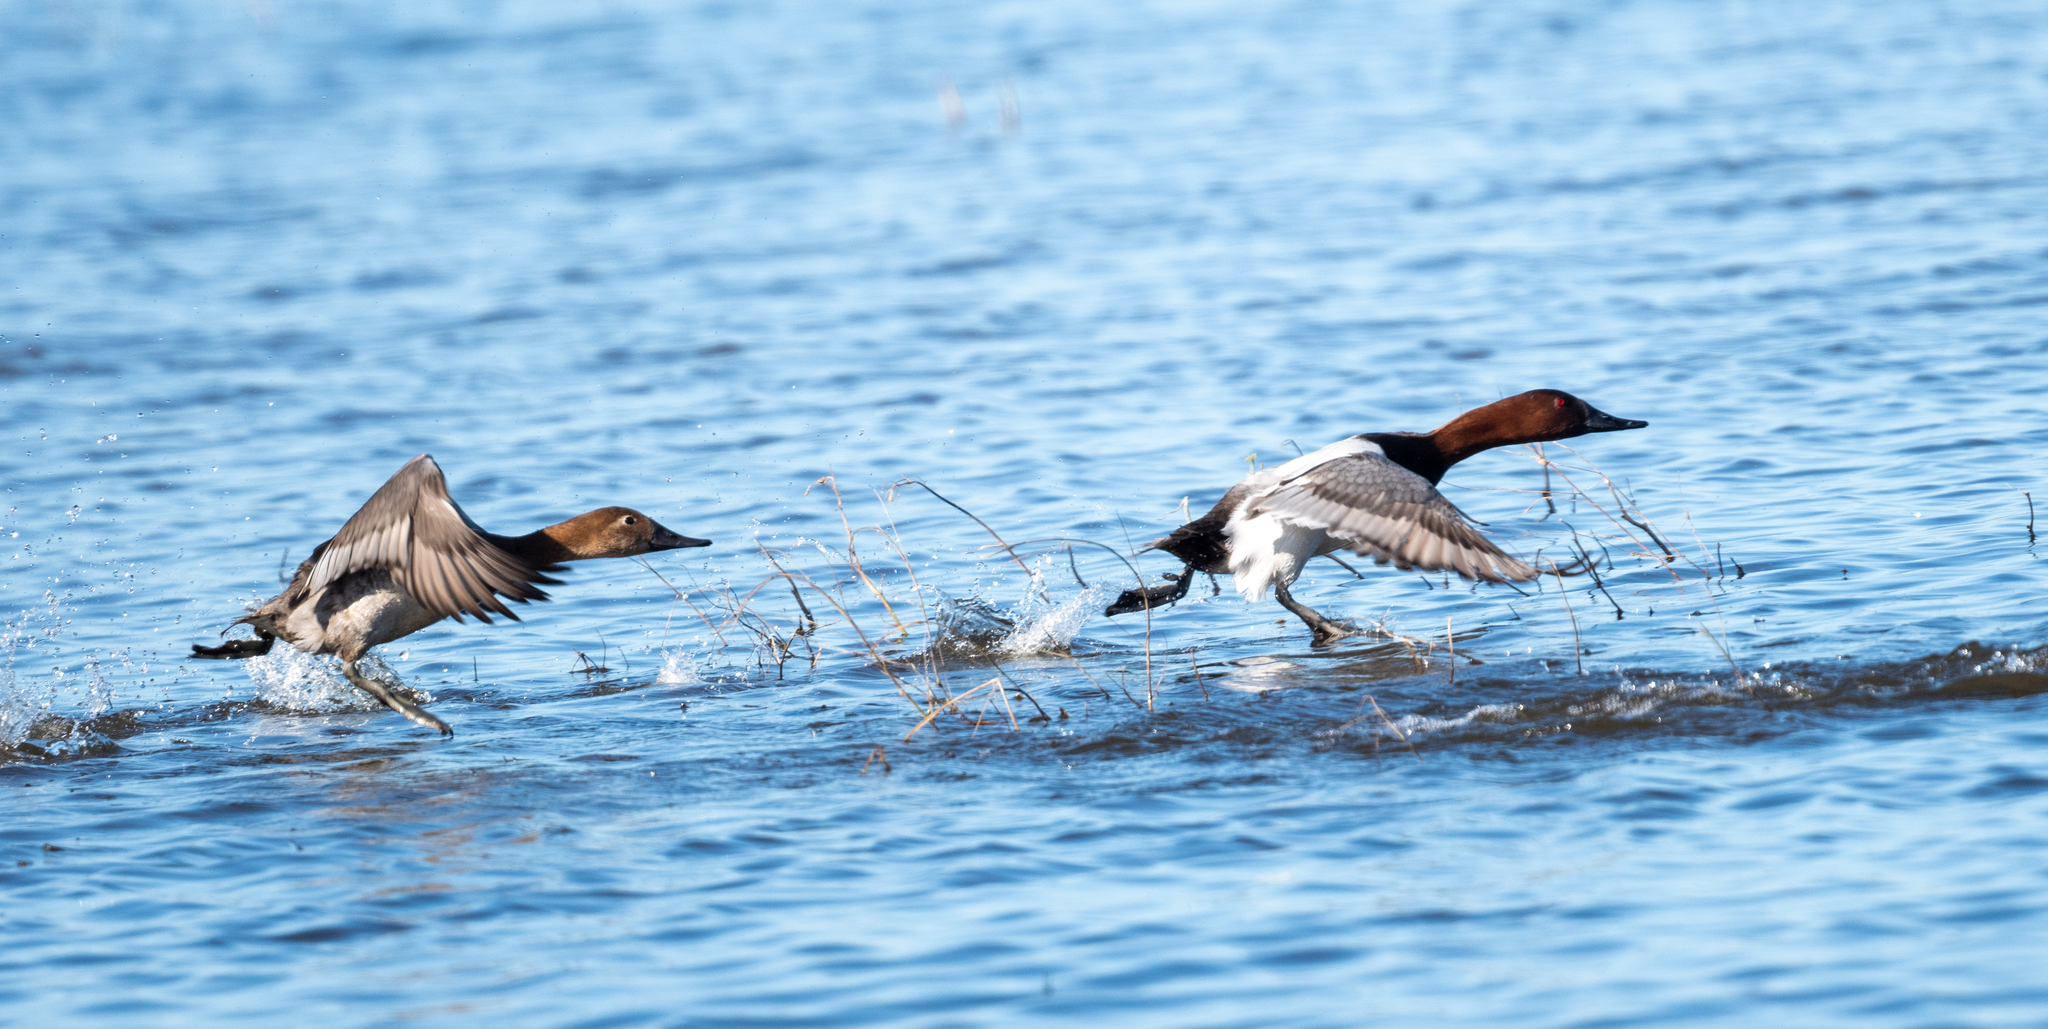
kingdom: Animalia
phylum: Chordata
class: Aves
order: Anseriformes
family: Anatidae
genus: Aythya
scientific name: Aythya valisineria
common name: Canvasback
